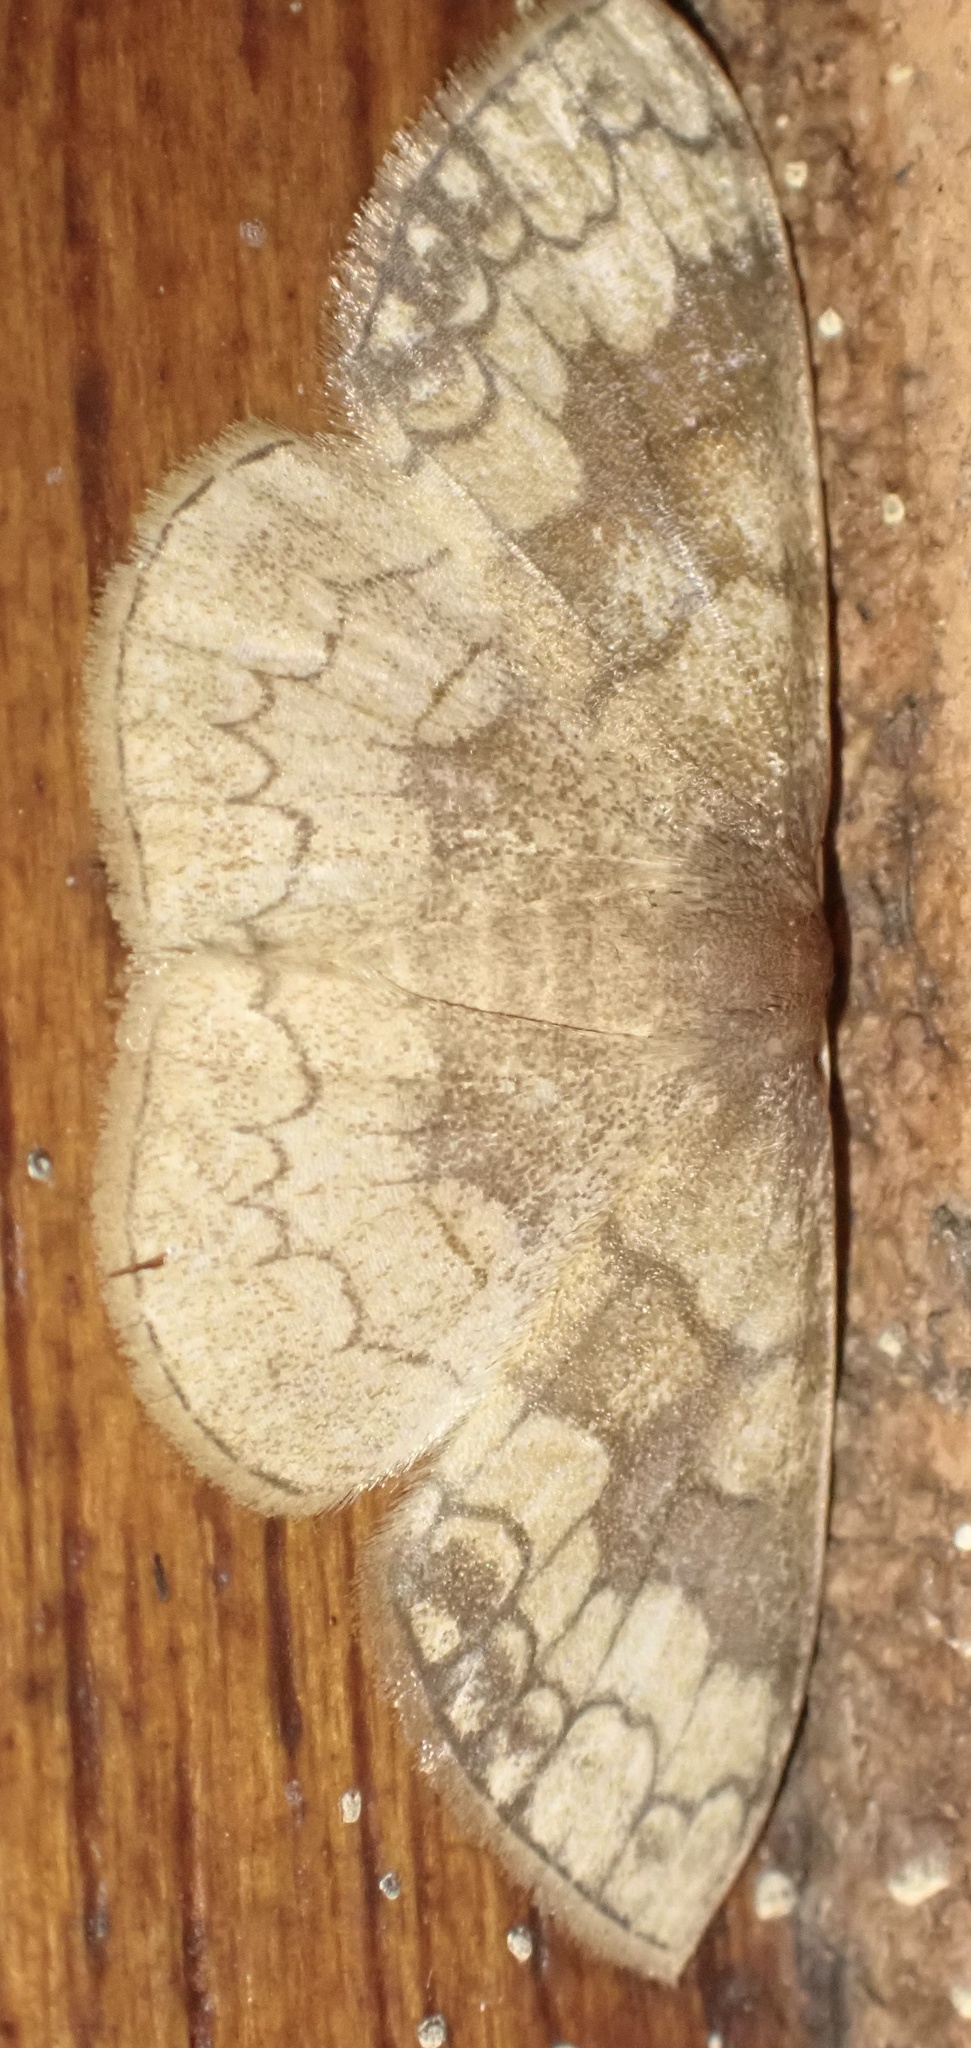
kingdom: Animalia
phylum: Arthropoda
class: Insecta
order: Lepidoptera
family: Geometridae
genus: Epicosymbia
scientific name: Epicosymbia nitidata
